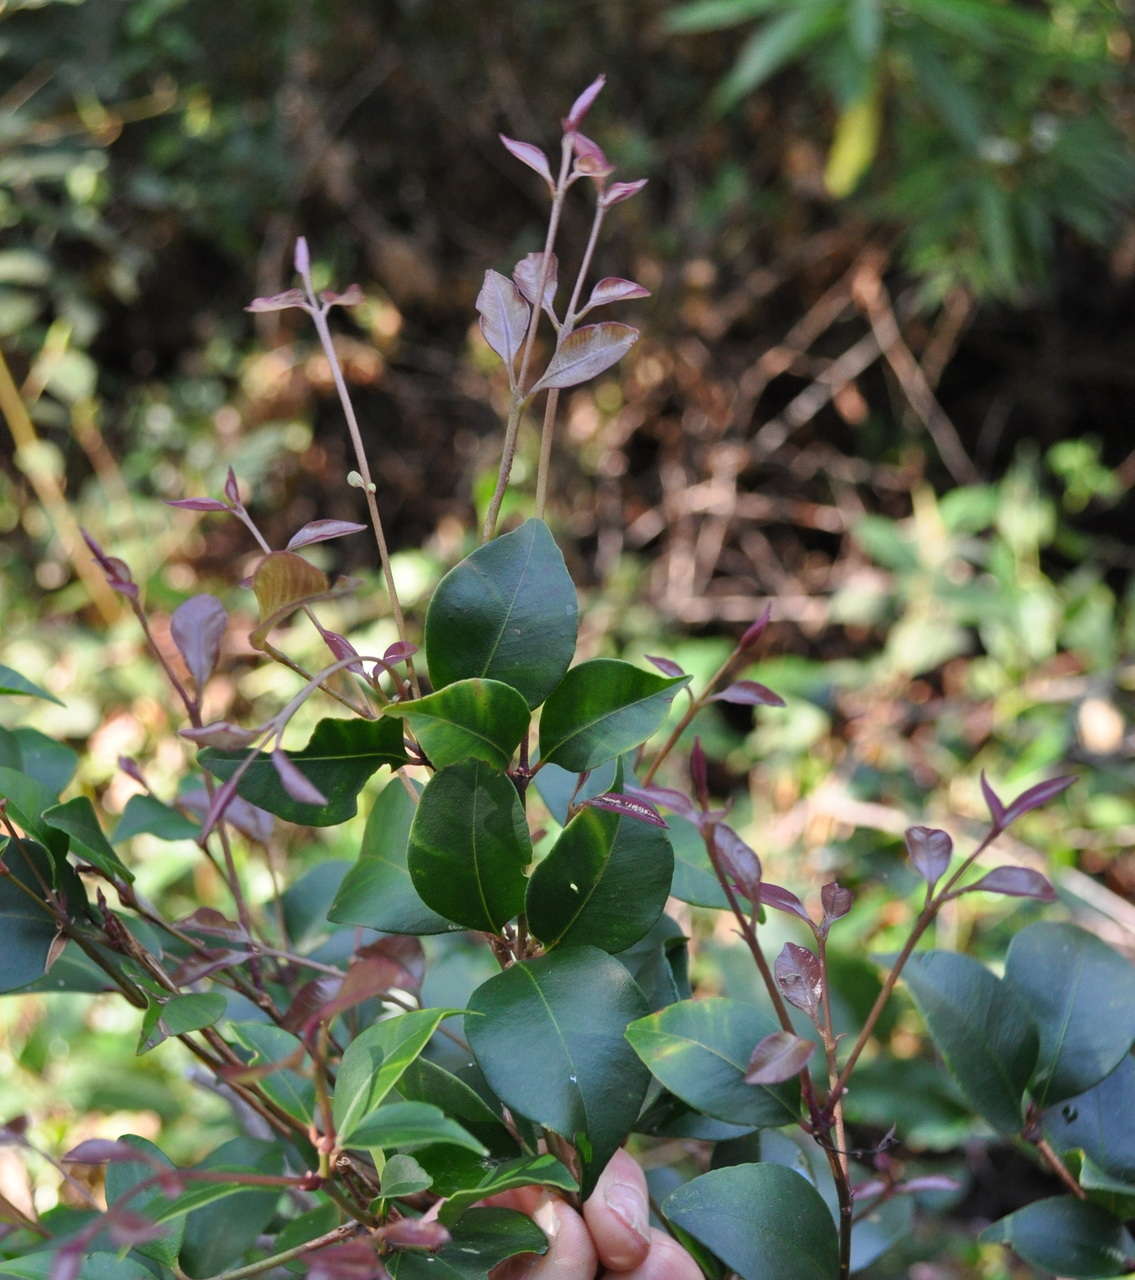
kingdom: Plantae
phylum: Tracheophyta
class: Magnoliopsida
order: Myrtales
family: Myrtaceae
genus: Syzygium
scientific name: Syzygium smithii
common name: Lilly-pilly
